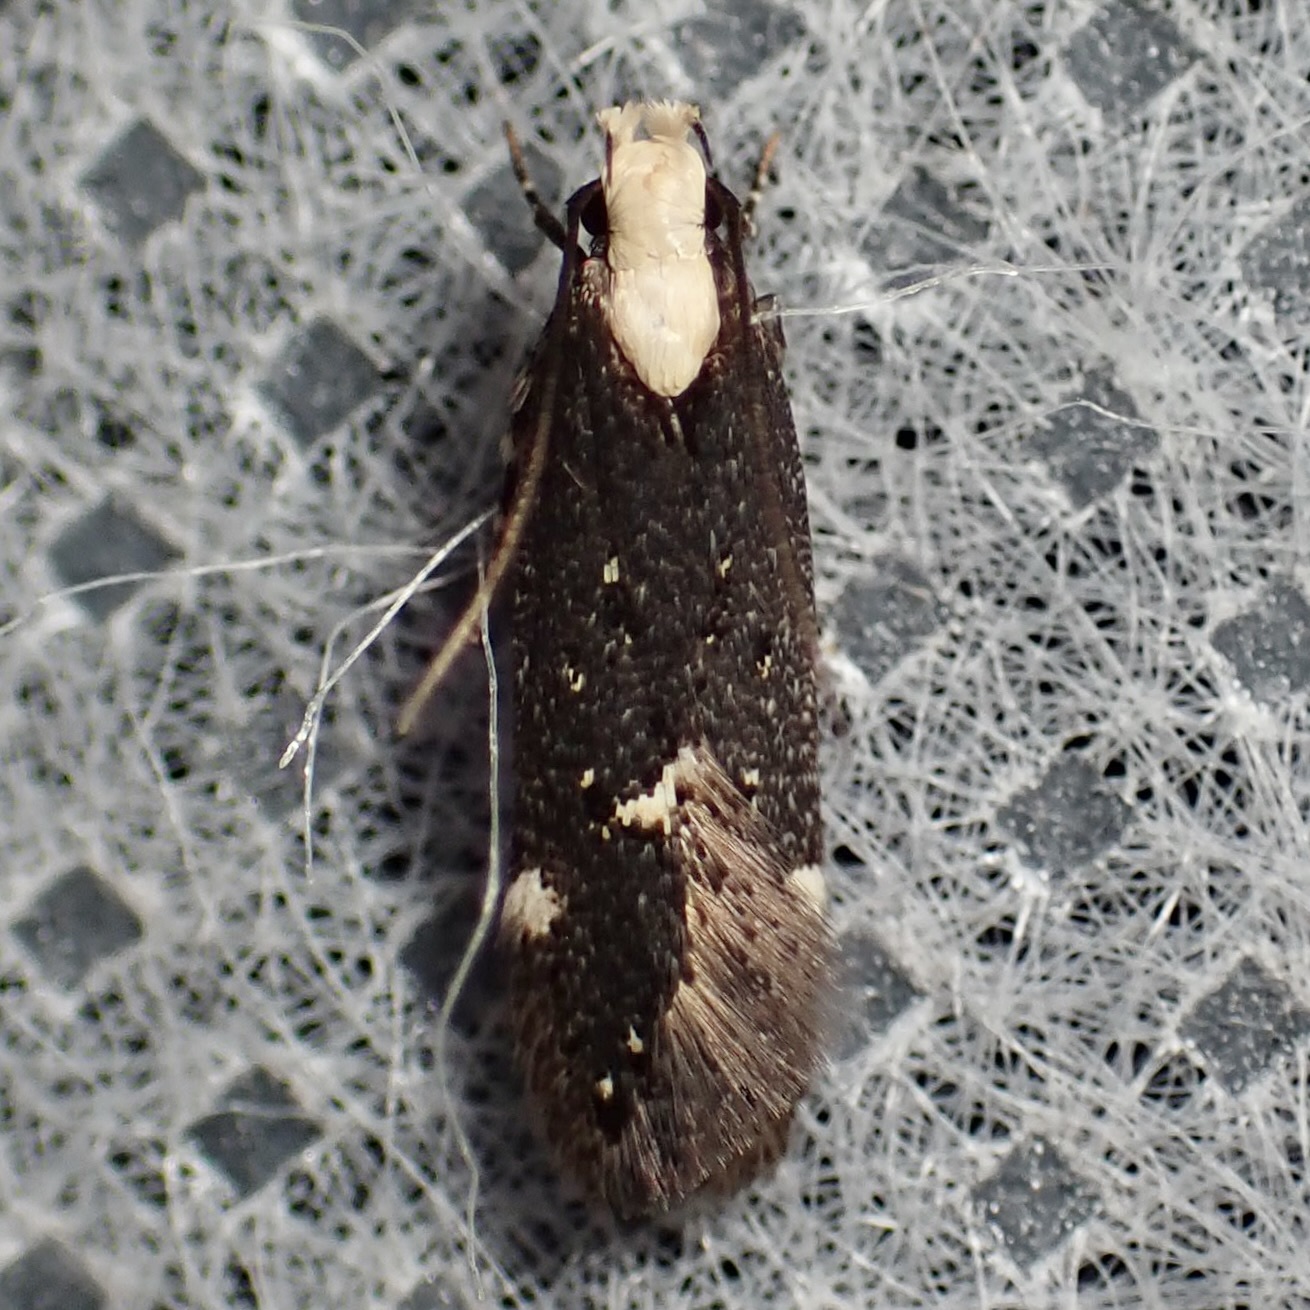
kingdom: Animalia
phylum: Arthropoda
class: Insecta
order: Lepidoptera
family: Gelechiidae
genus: Chionodes
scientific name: Chionodes phalacra
